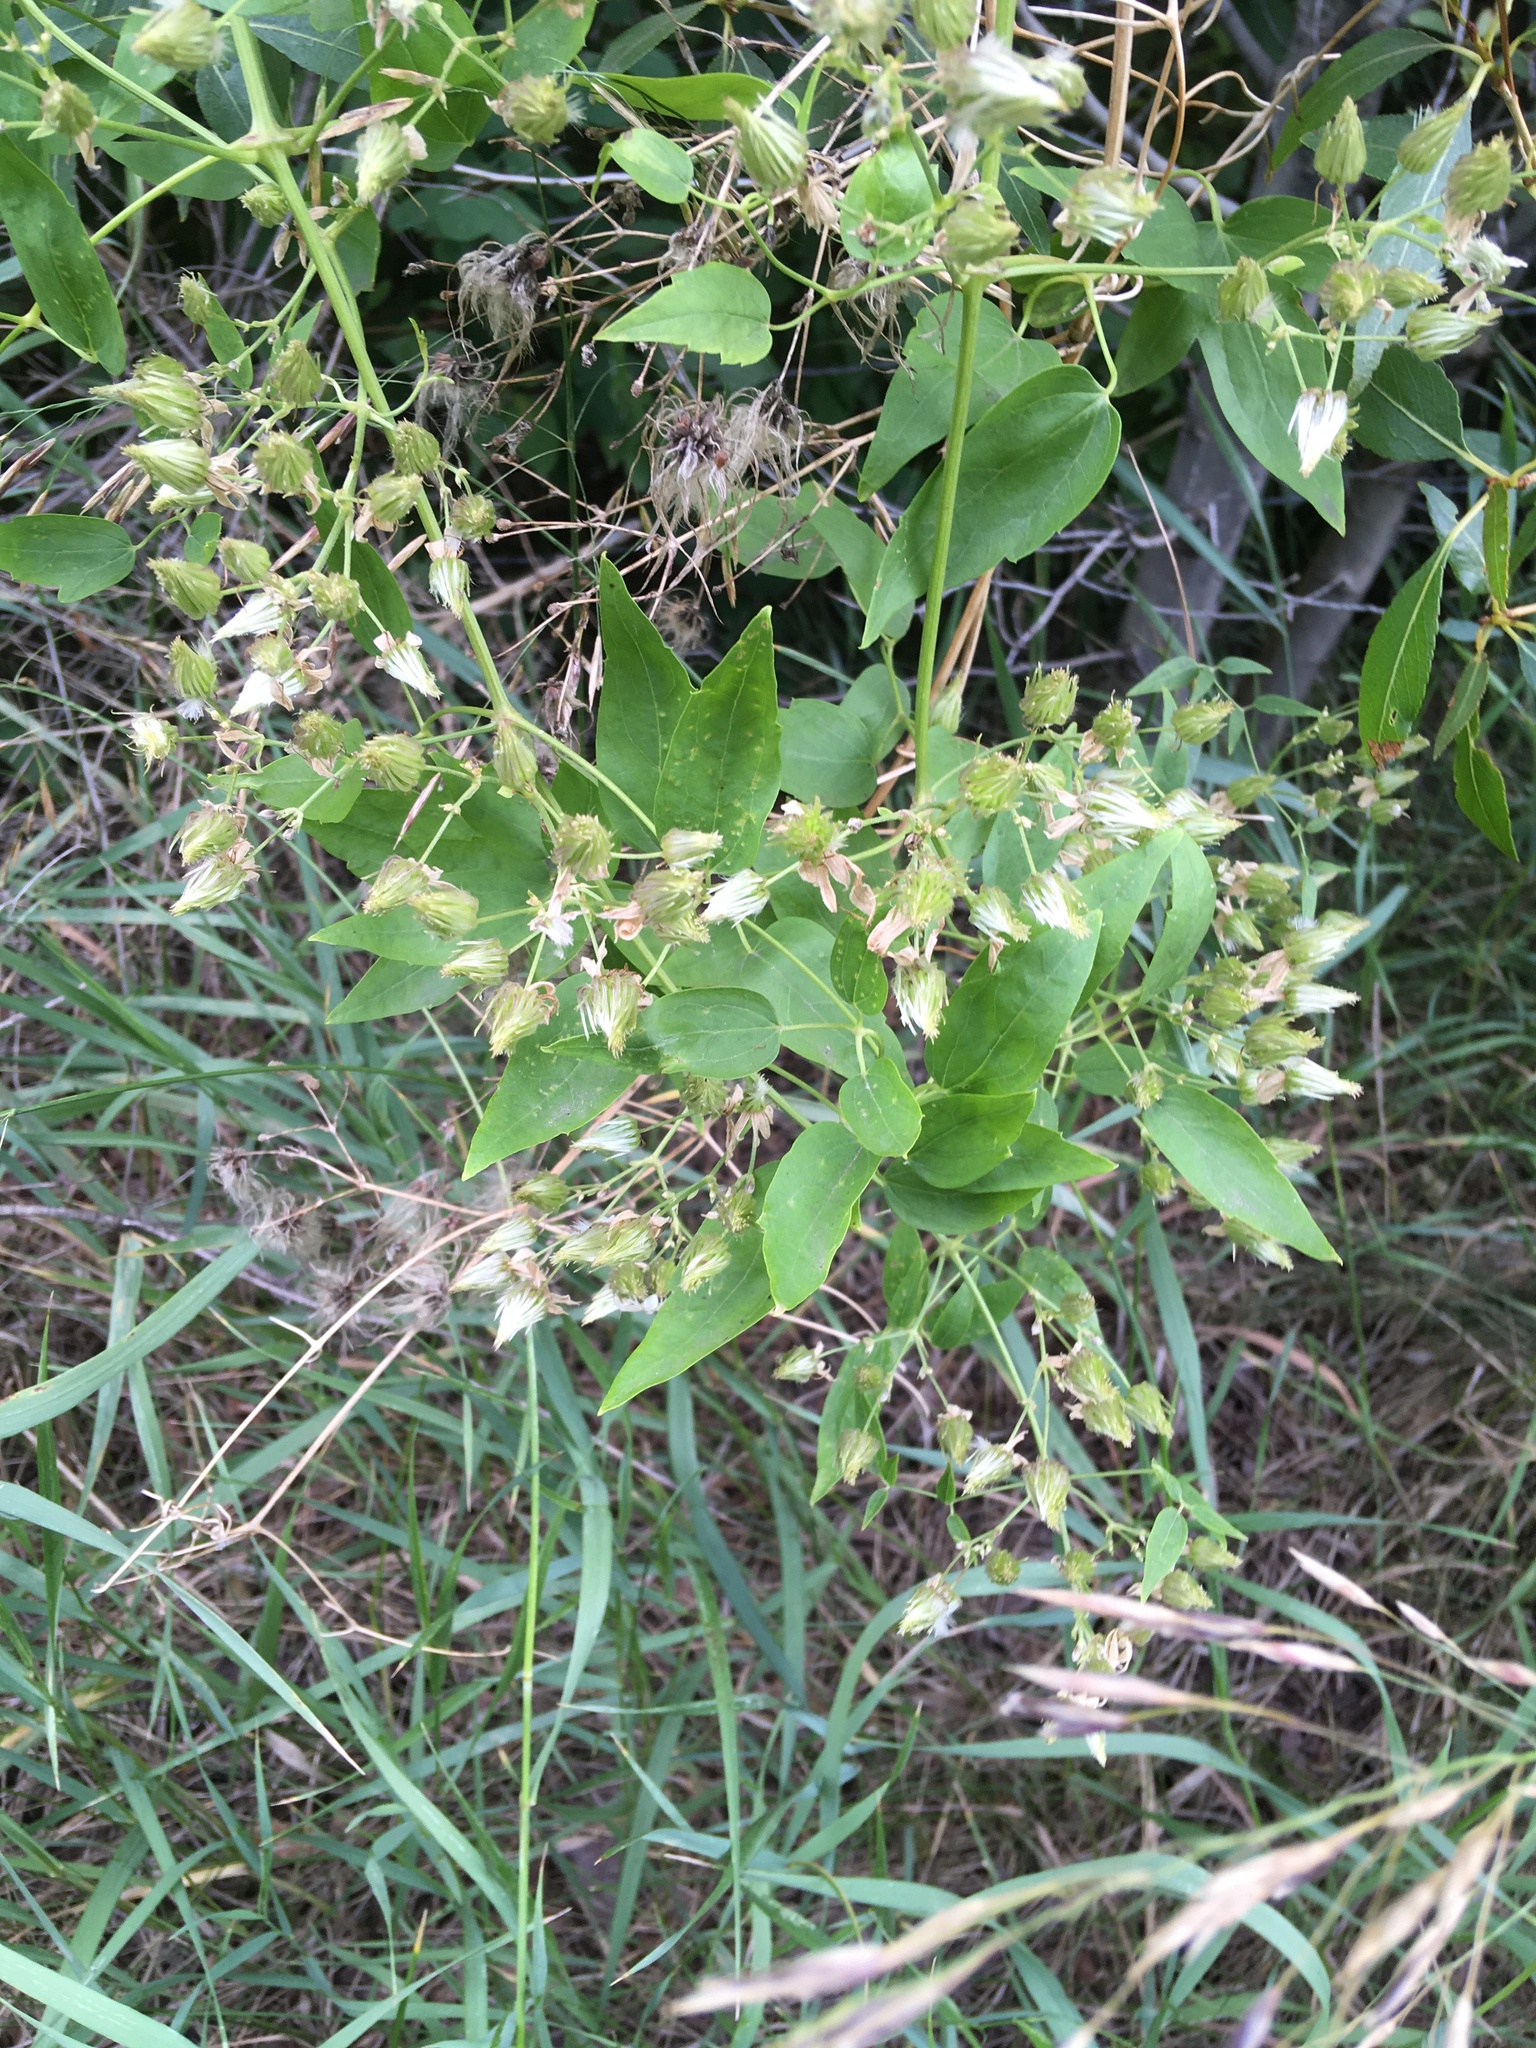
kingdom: Plantae
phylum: Tracheophyta
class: Magnoliopsida
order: Ranunculales
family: Ranunculaceae
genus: Clematis
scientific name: Clematis ligusticifolia
